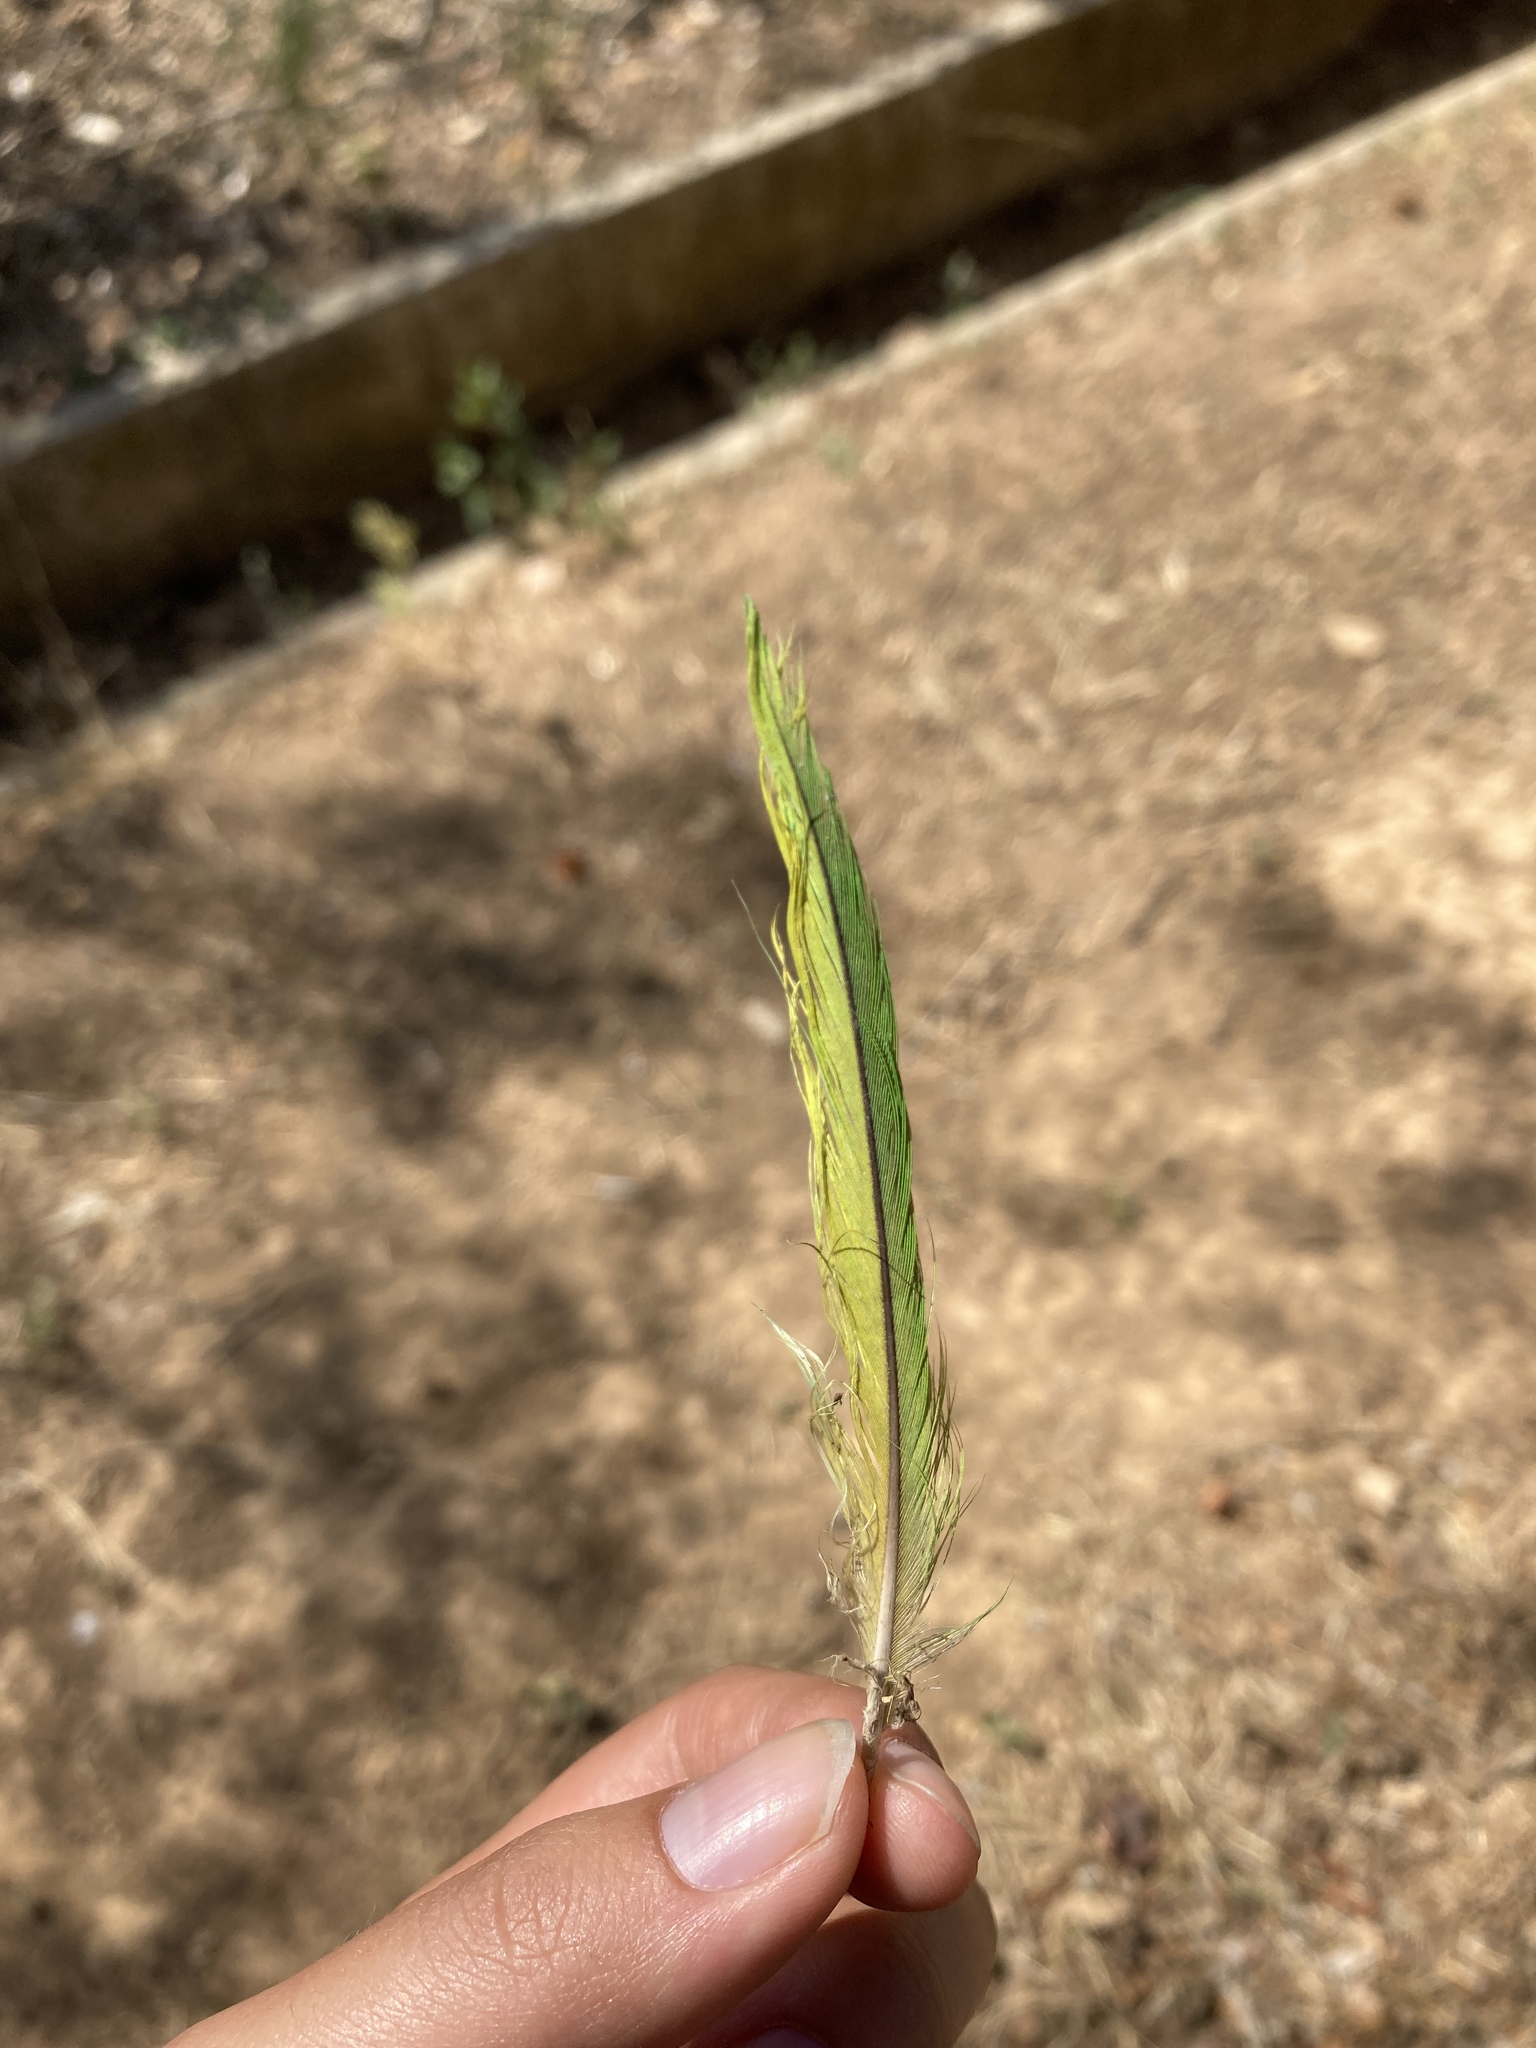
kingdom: Animalia
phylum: Chordata
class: Aves
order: Psittaciformes
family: Psittacidae
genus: Myiopsitta
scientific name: Myiopsitta monachus
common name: Monk parakeet
